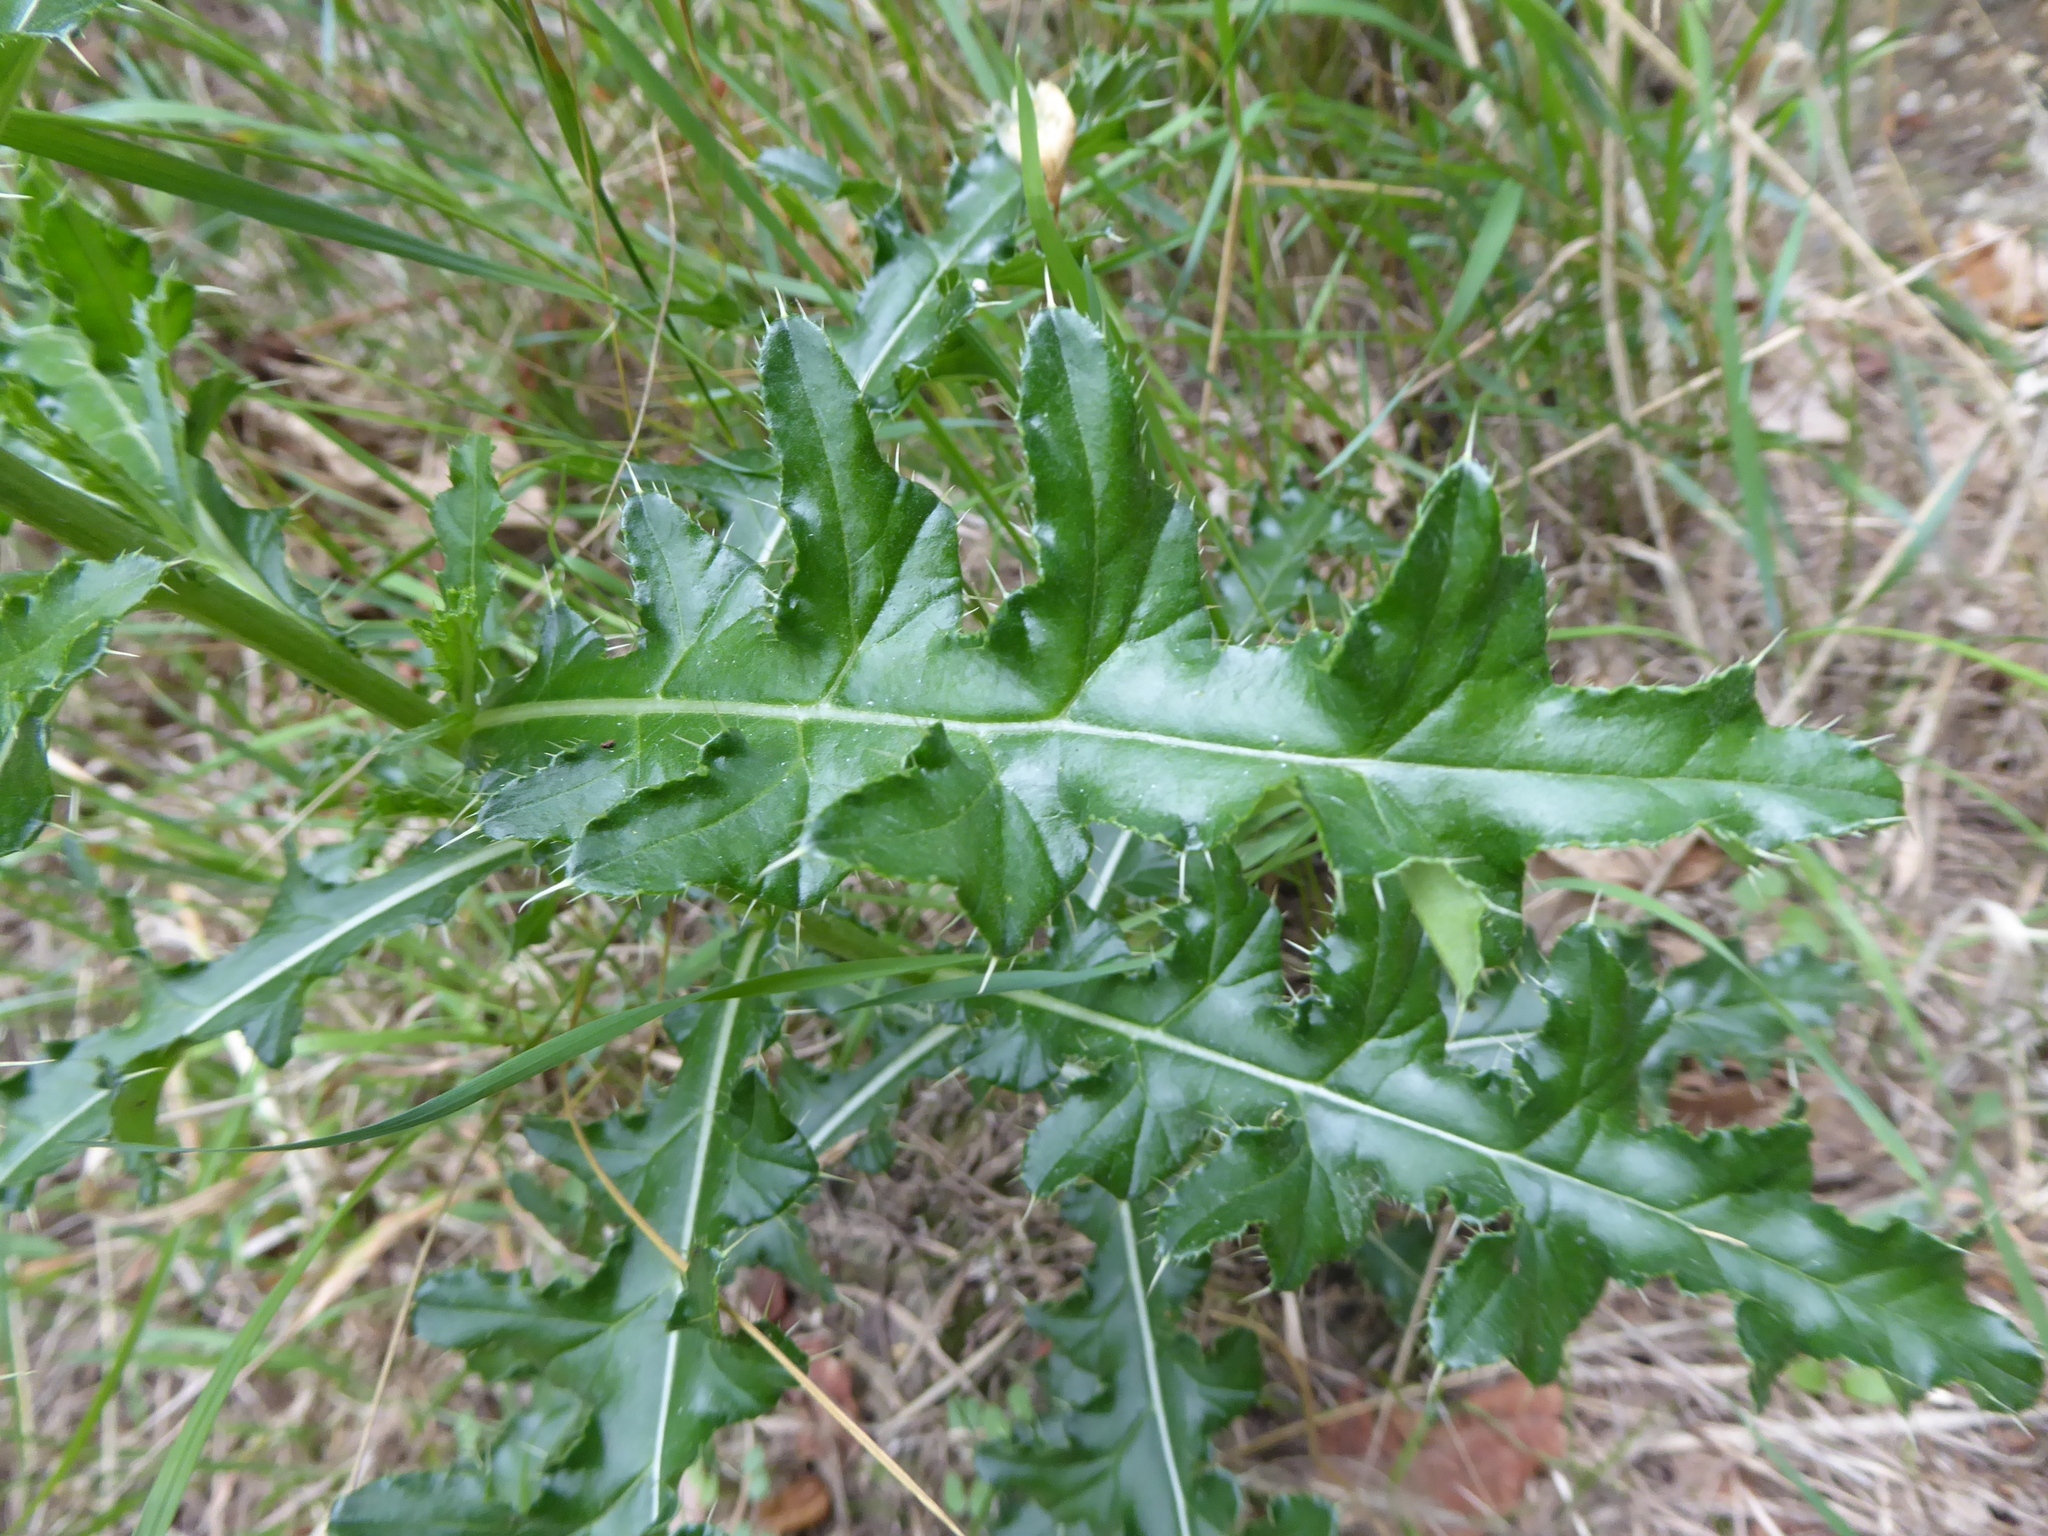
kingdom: Plantae
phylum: Tracheophyta
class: Magnoliopsida
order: Asterales
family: Asteraceae
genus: Cirsium
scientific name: Cirsium arvense
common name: Creeping thistle
